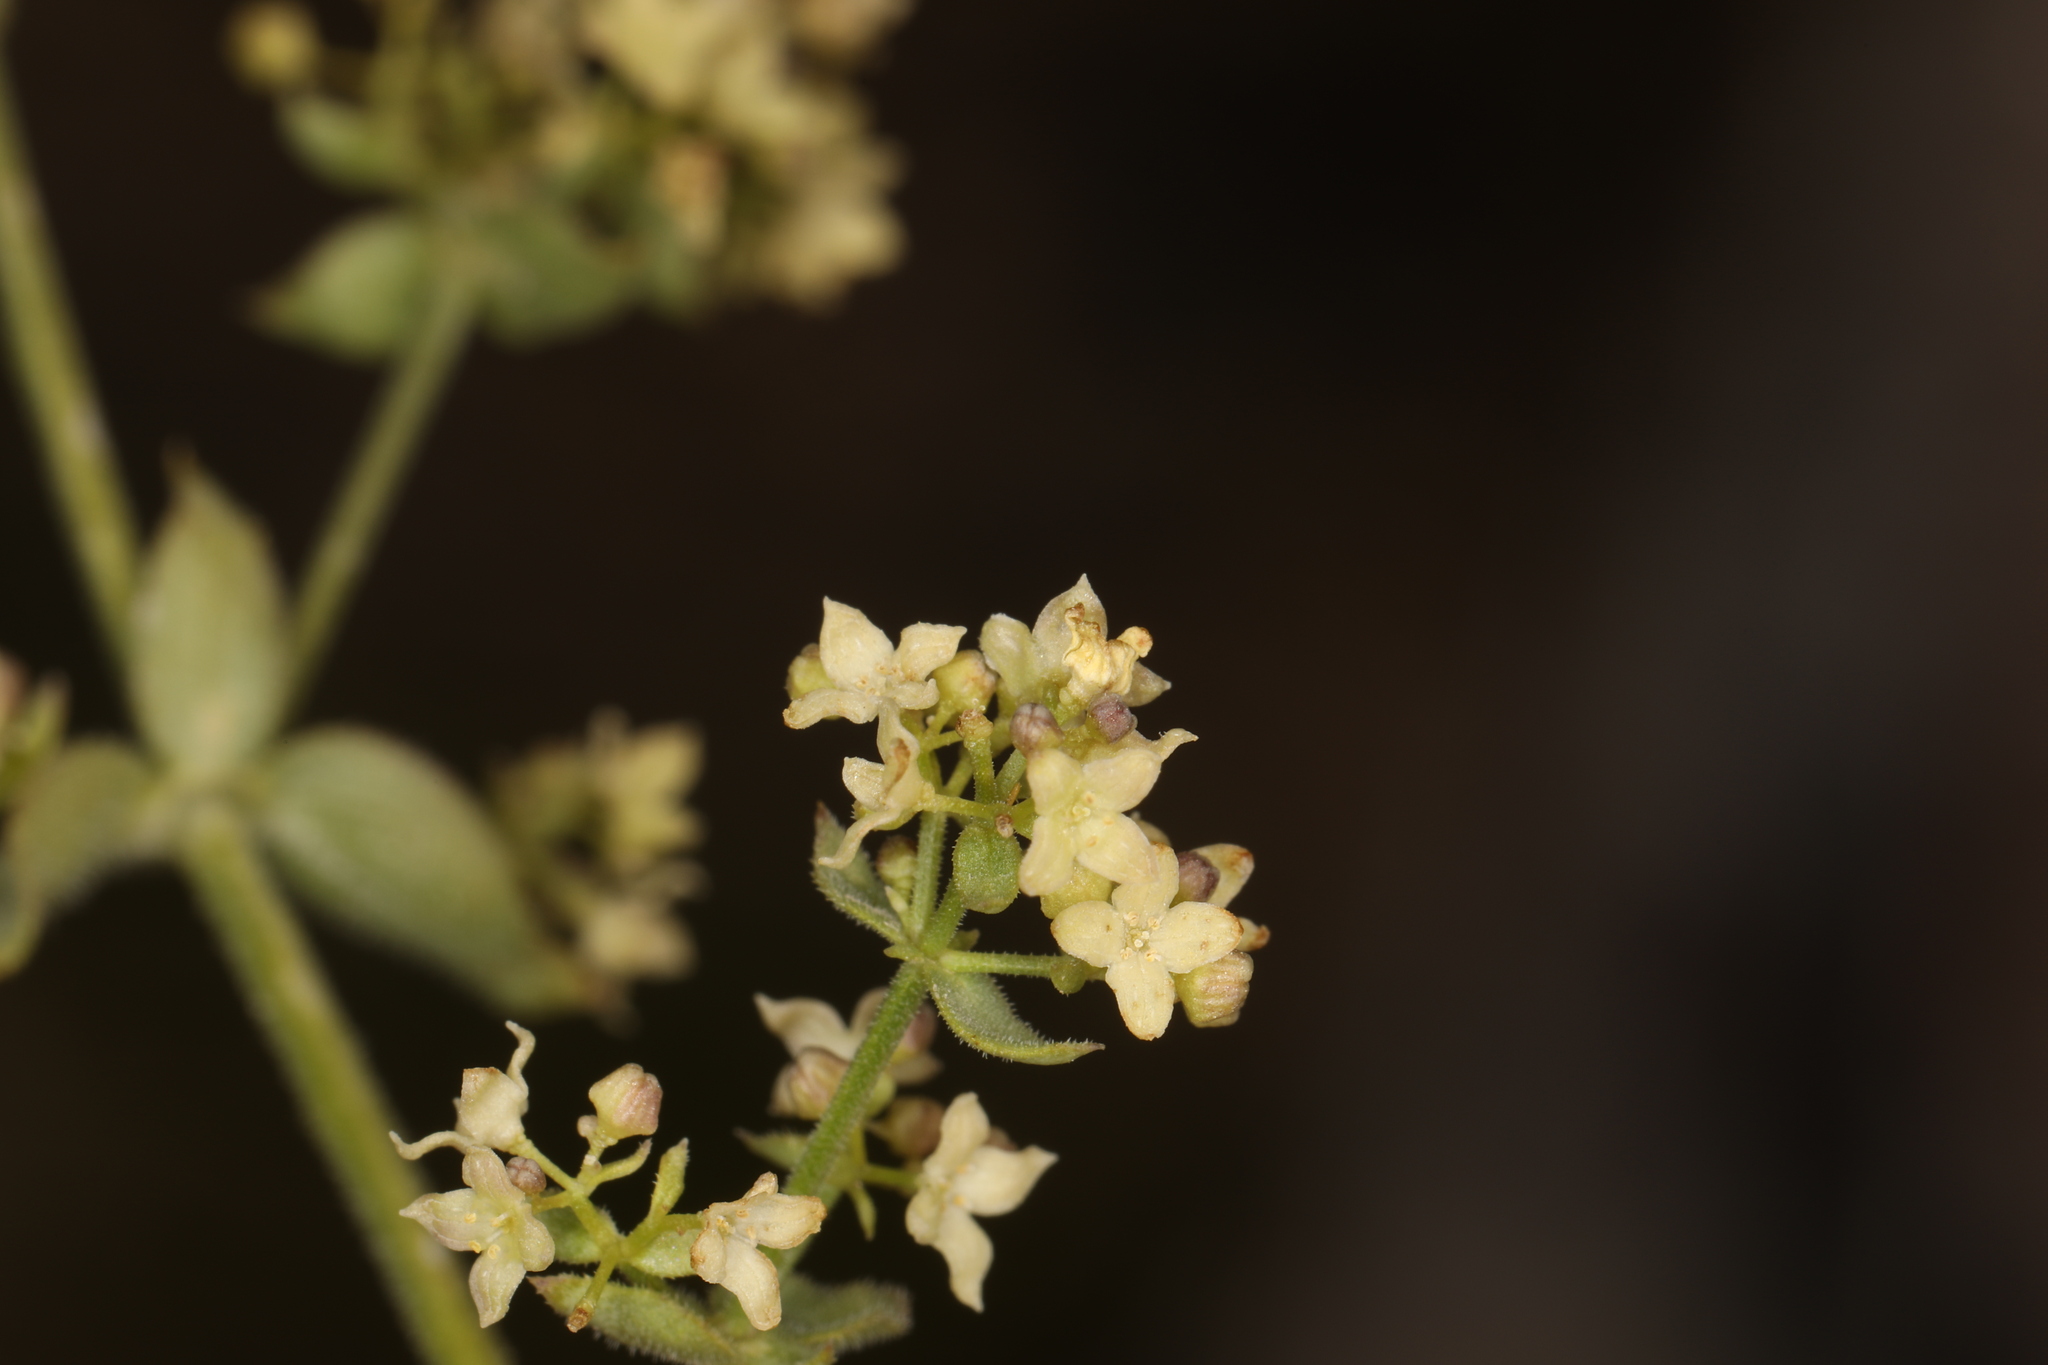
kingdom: Plantae
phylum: Tracheophyta
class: Magnoliopsida
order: Gentianales
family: Rubiaceae
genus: Galium
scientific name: Galium multiflorum
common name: Many-flowered bedstraw
